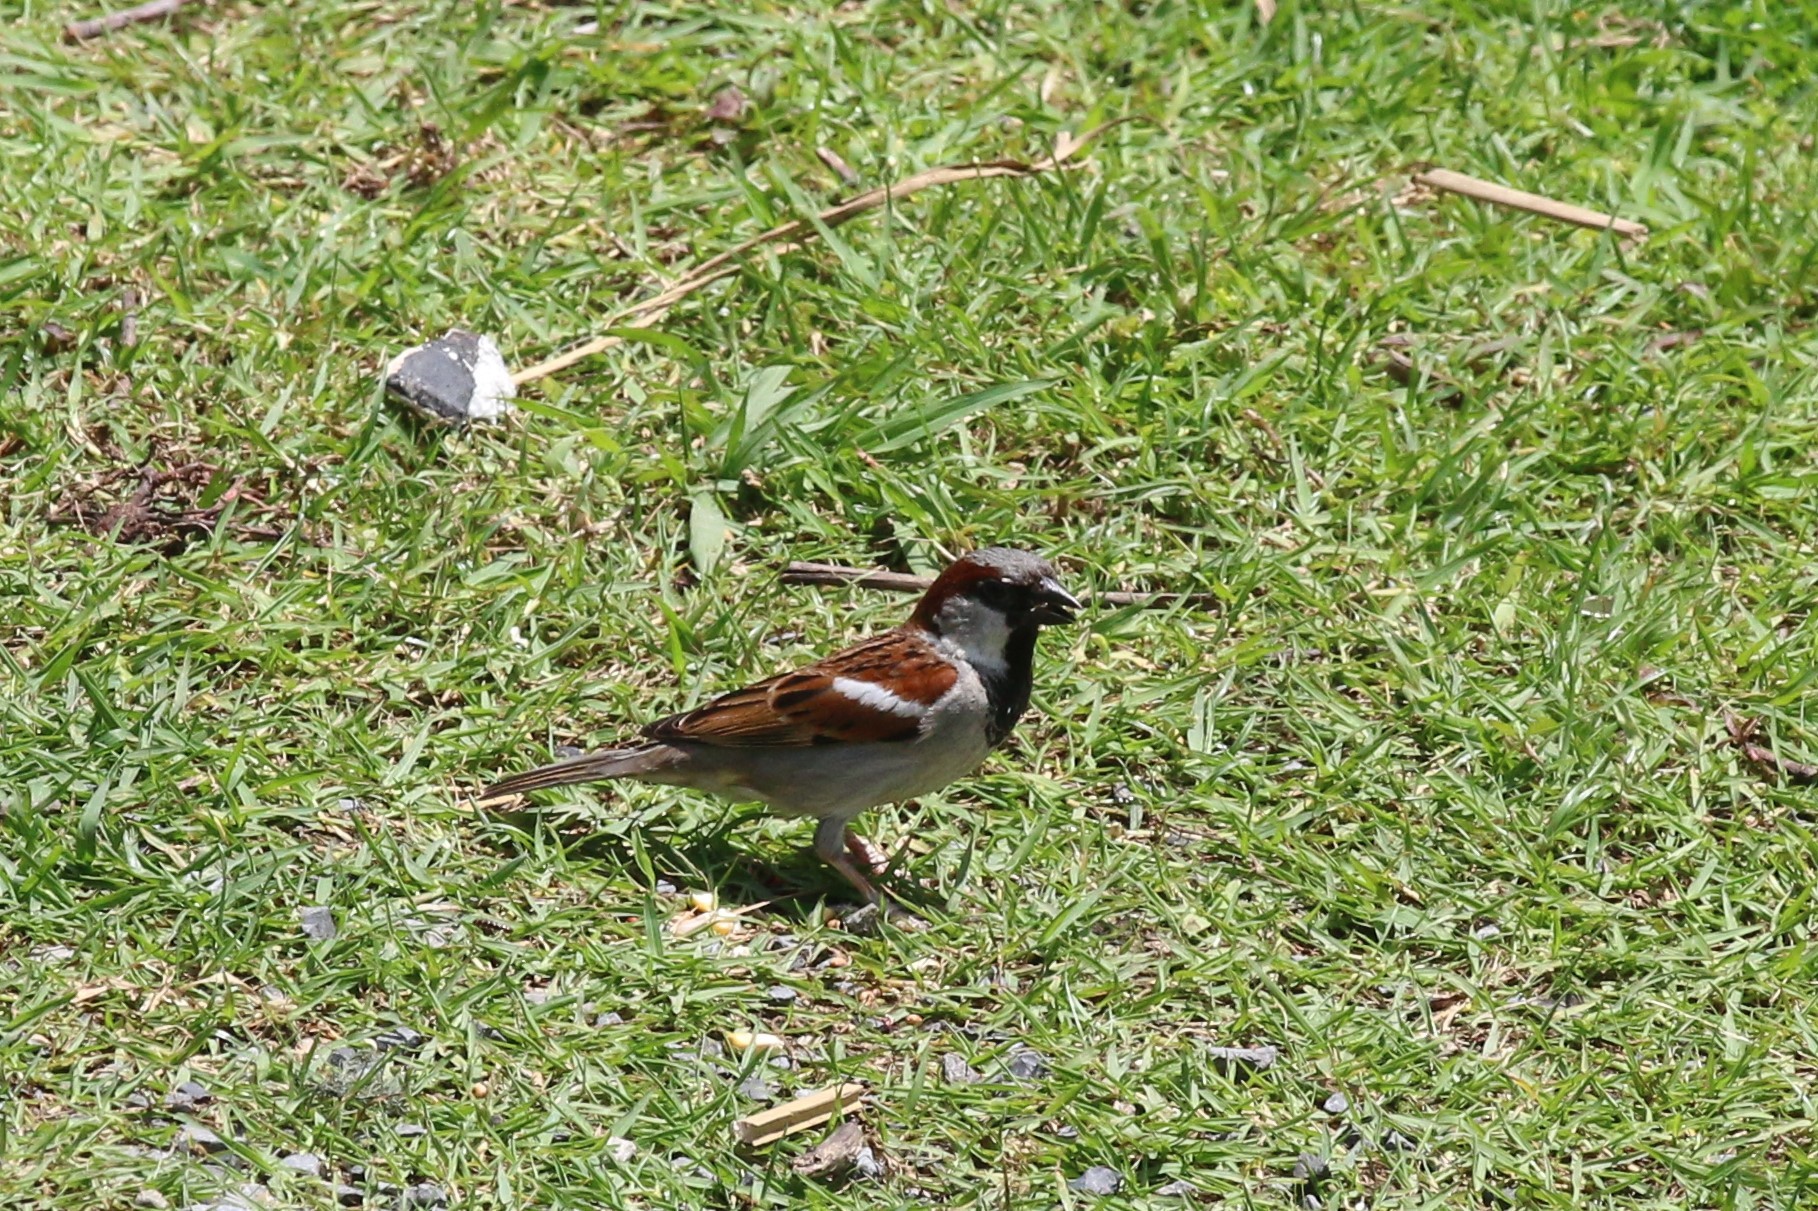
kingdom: Animalia
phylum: Chordata
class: Aves
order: Passeriformes
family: Passeridae
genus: Passer
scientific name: Passer domesticus
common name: House sparrow
